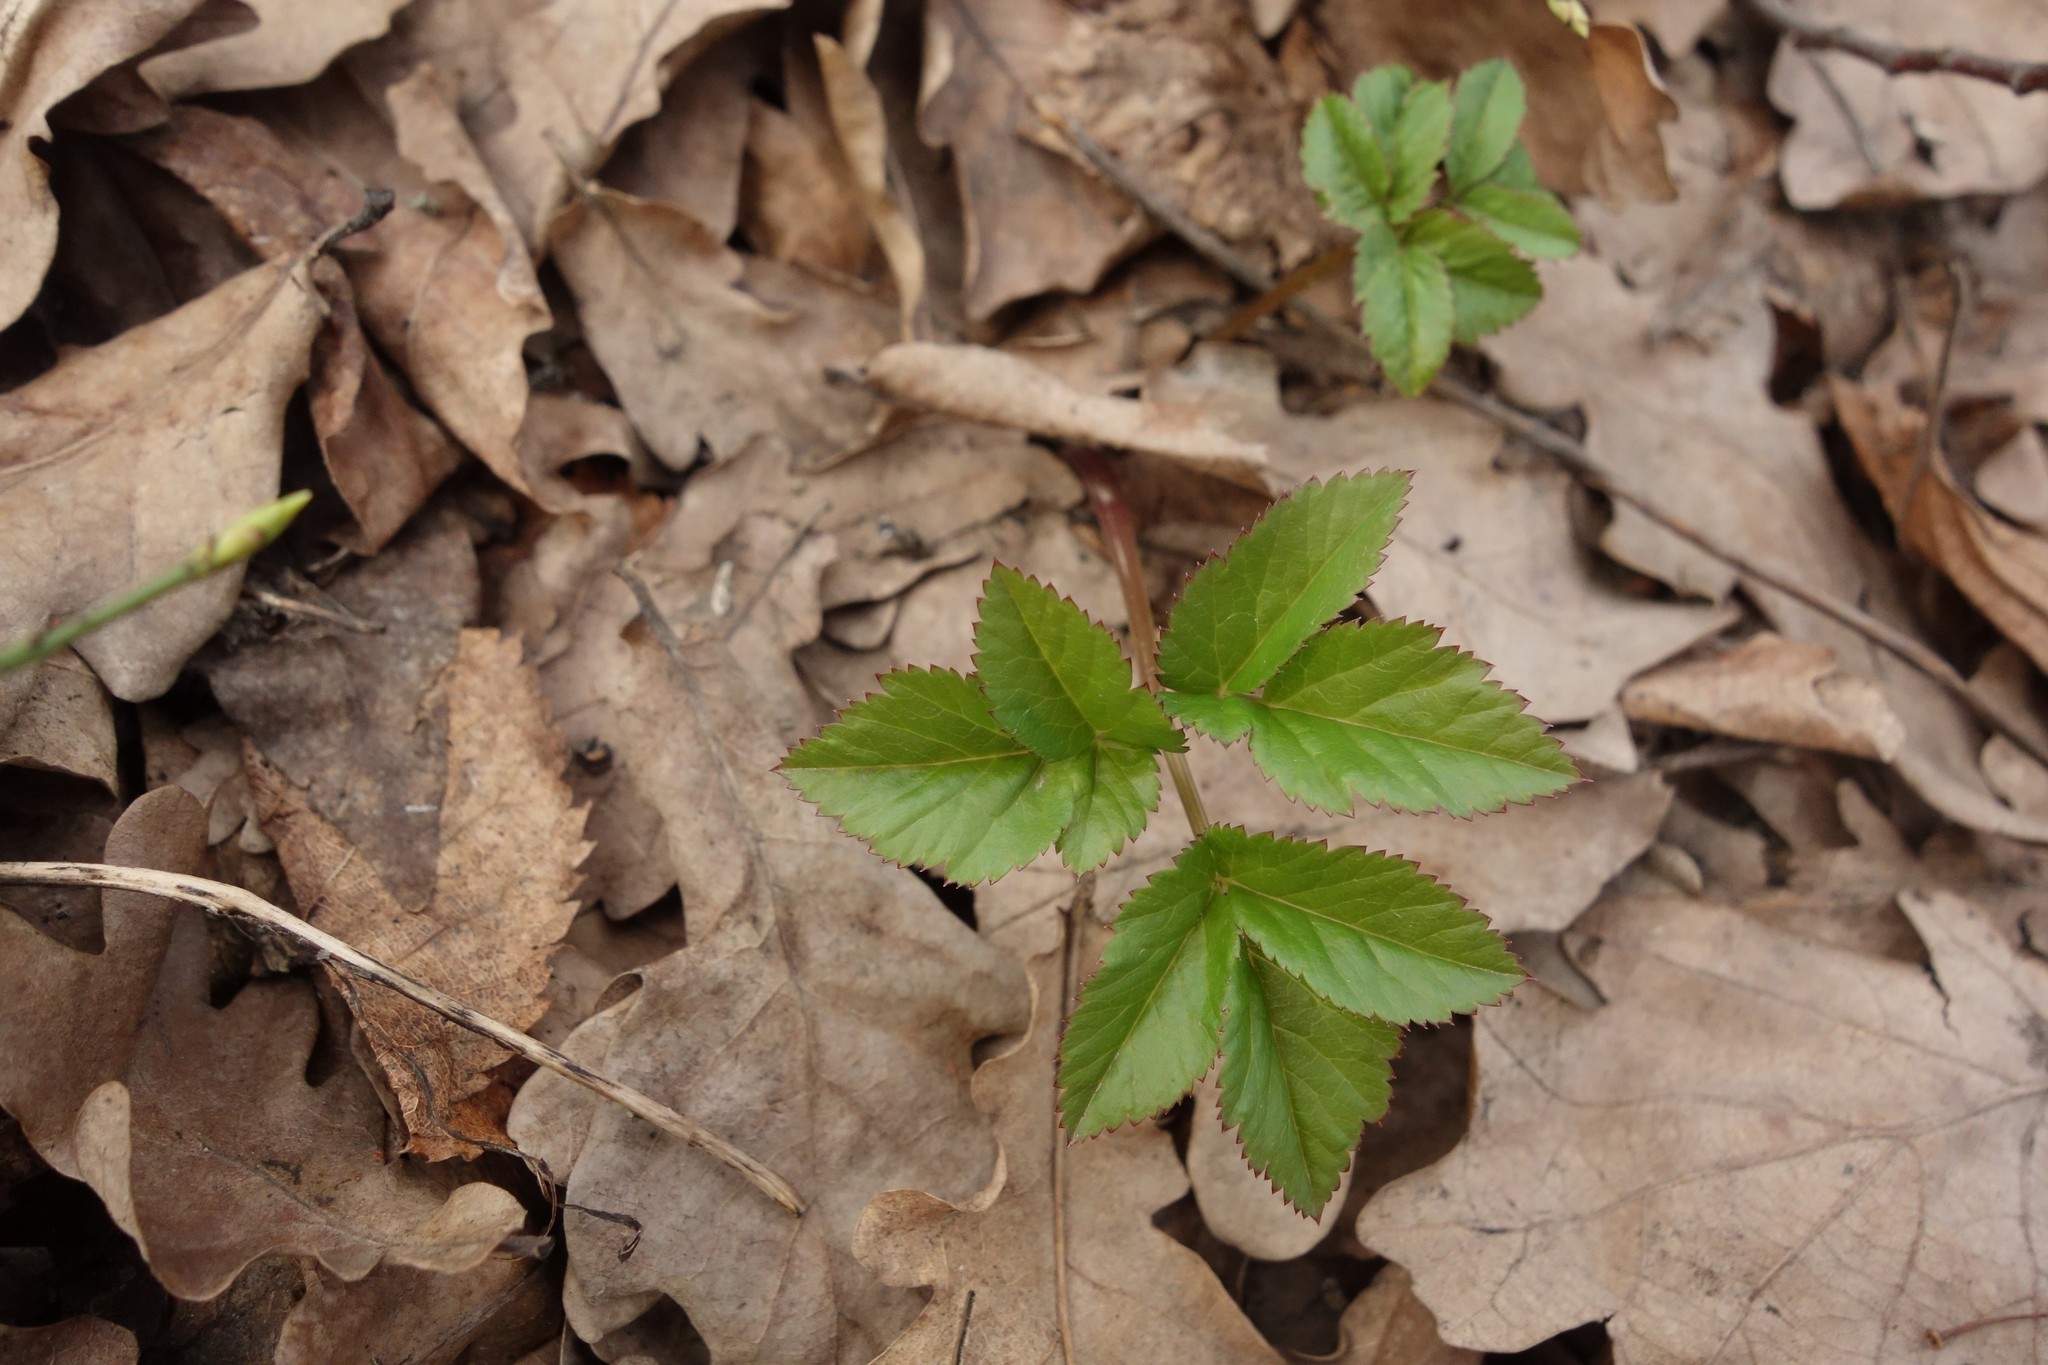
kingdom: Plantae
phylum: Tracheophyta
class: Magnoliopsida
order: Apiales
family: Apiaceae
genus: Aegopodium
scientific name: Aegopodium podagraria
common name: Ground-elder
